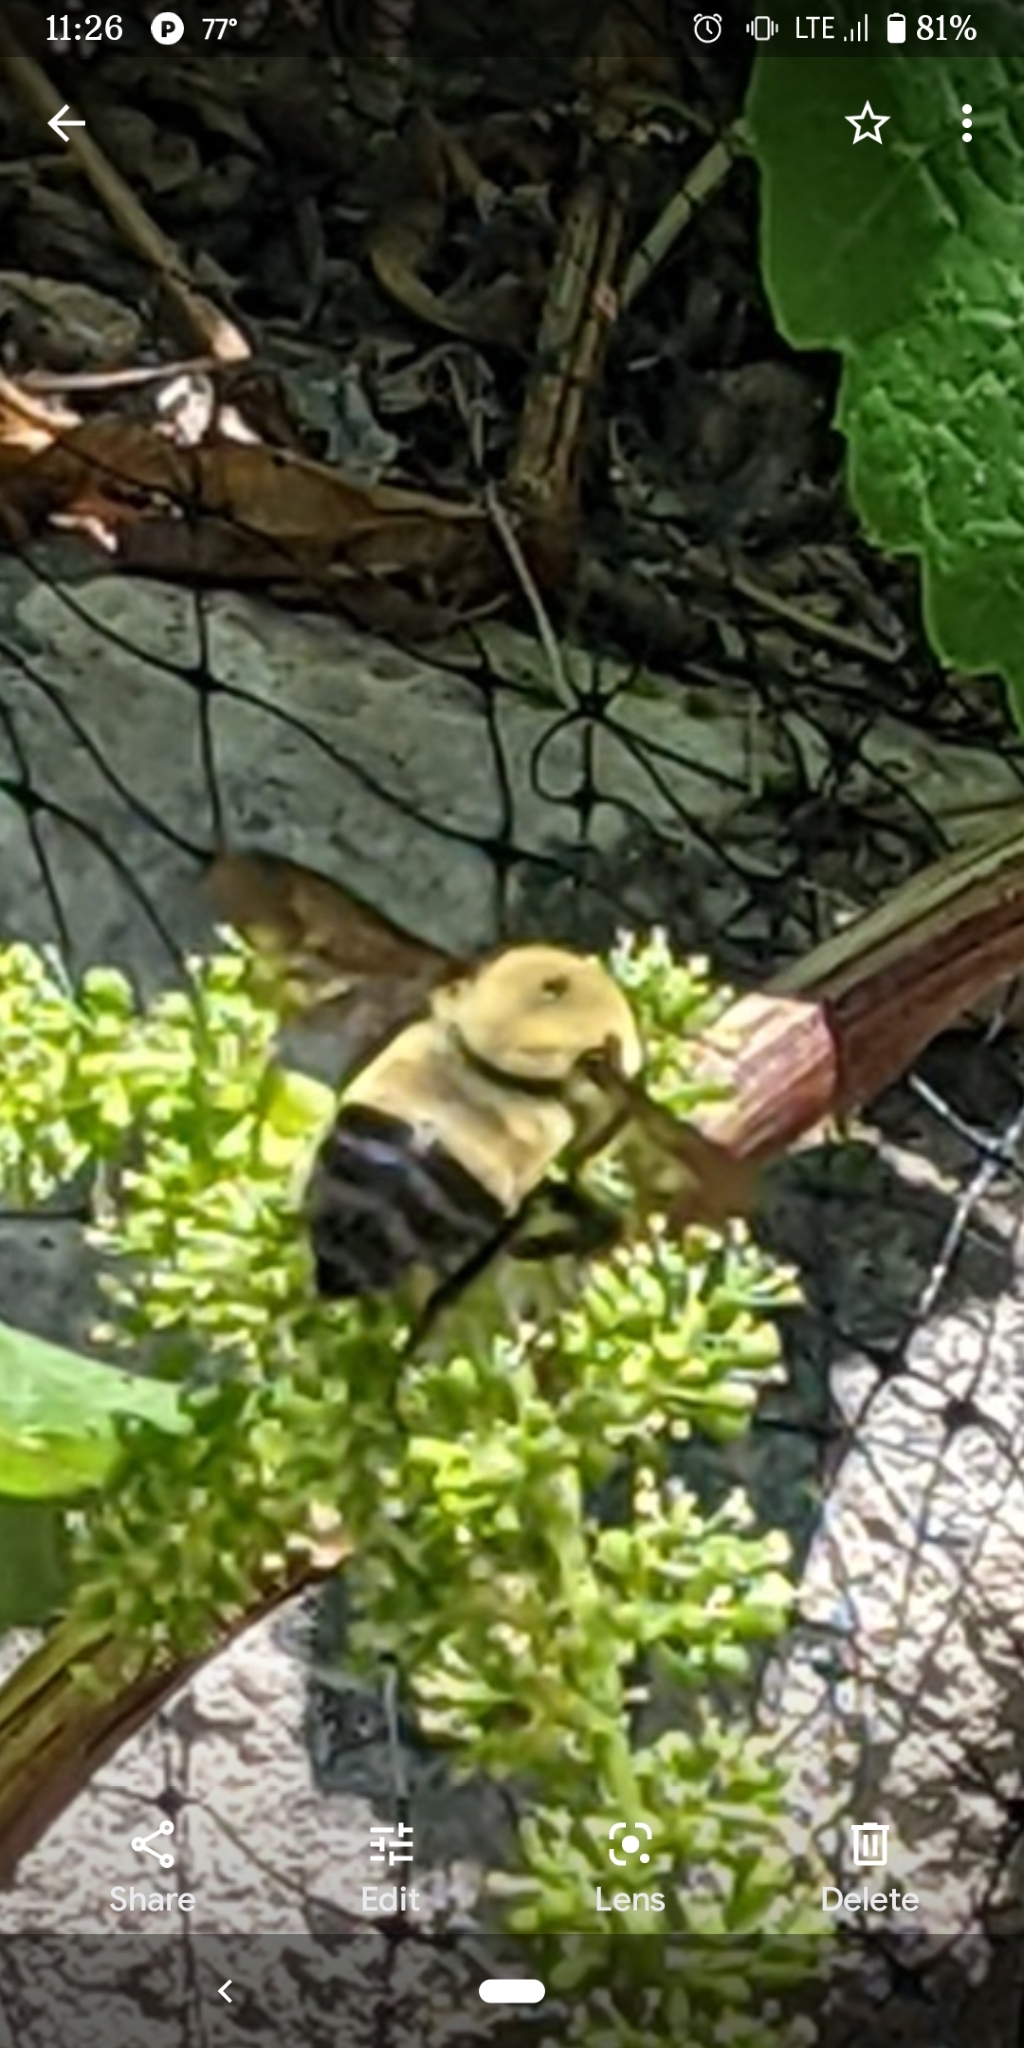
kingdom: Animalia
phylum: Arthropoda
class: Insecta
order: Hymenoptera
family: Apidae
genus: Bombus
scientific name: Bombus griseocollis
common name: Brown-belted bumble bee
